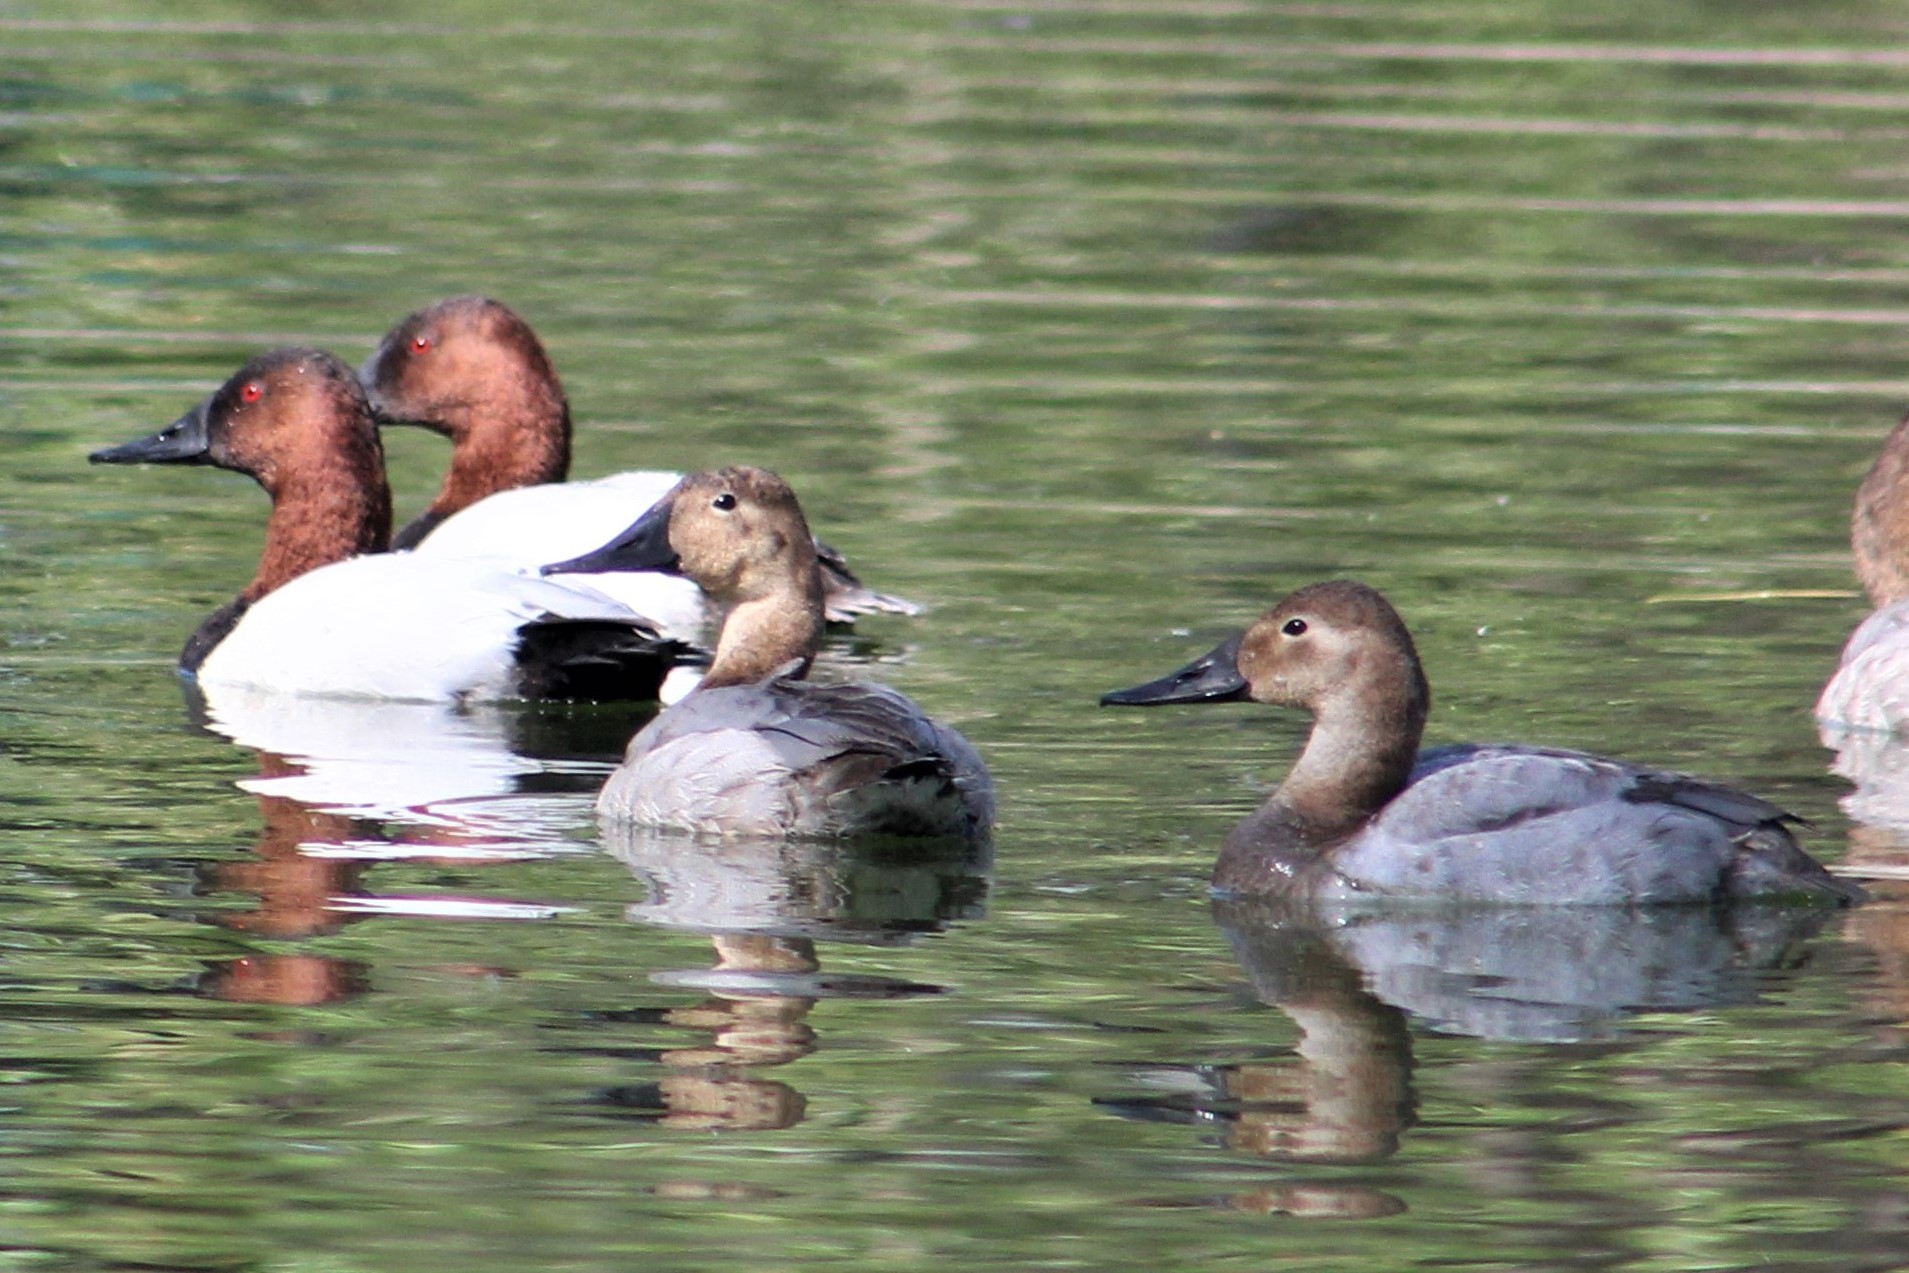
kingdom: Animalia
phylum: Chordata
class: Aves
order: Anseriformes
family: Anatidae
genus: Aythya
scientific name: Aythya valisineria
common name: Canvasback
